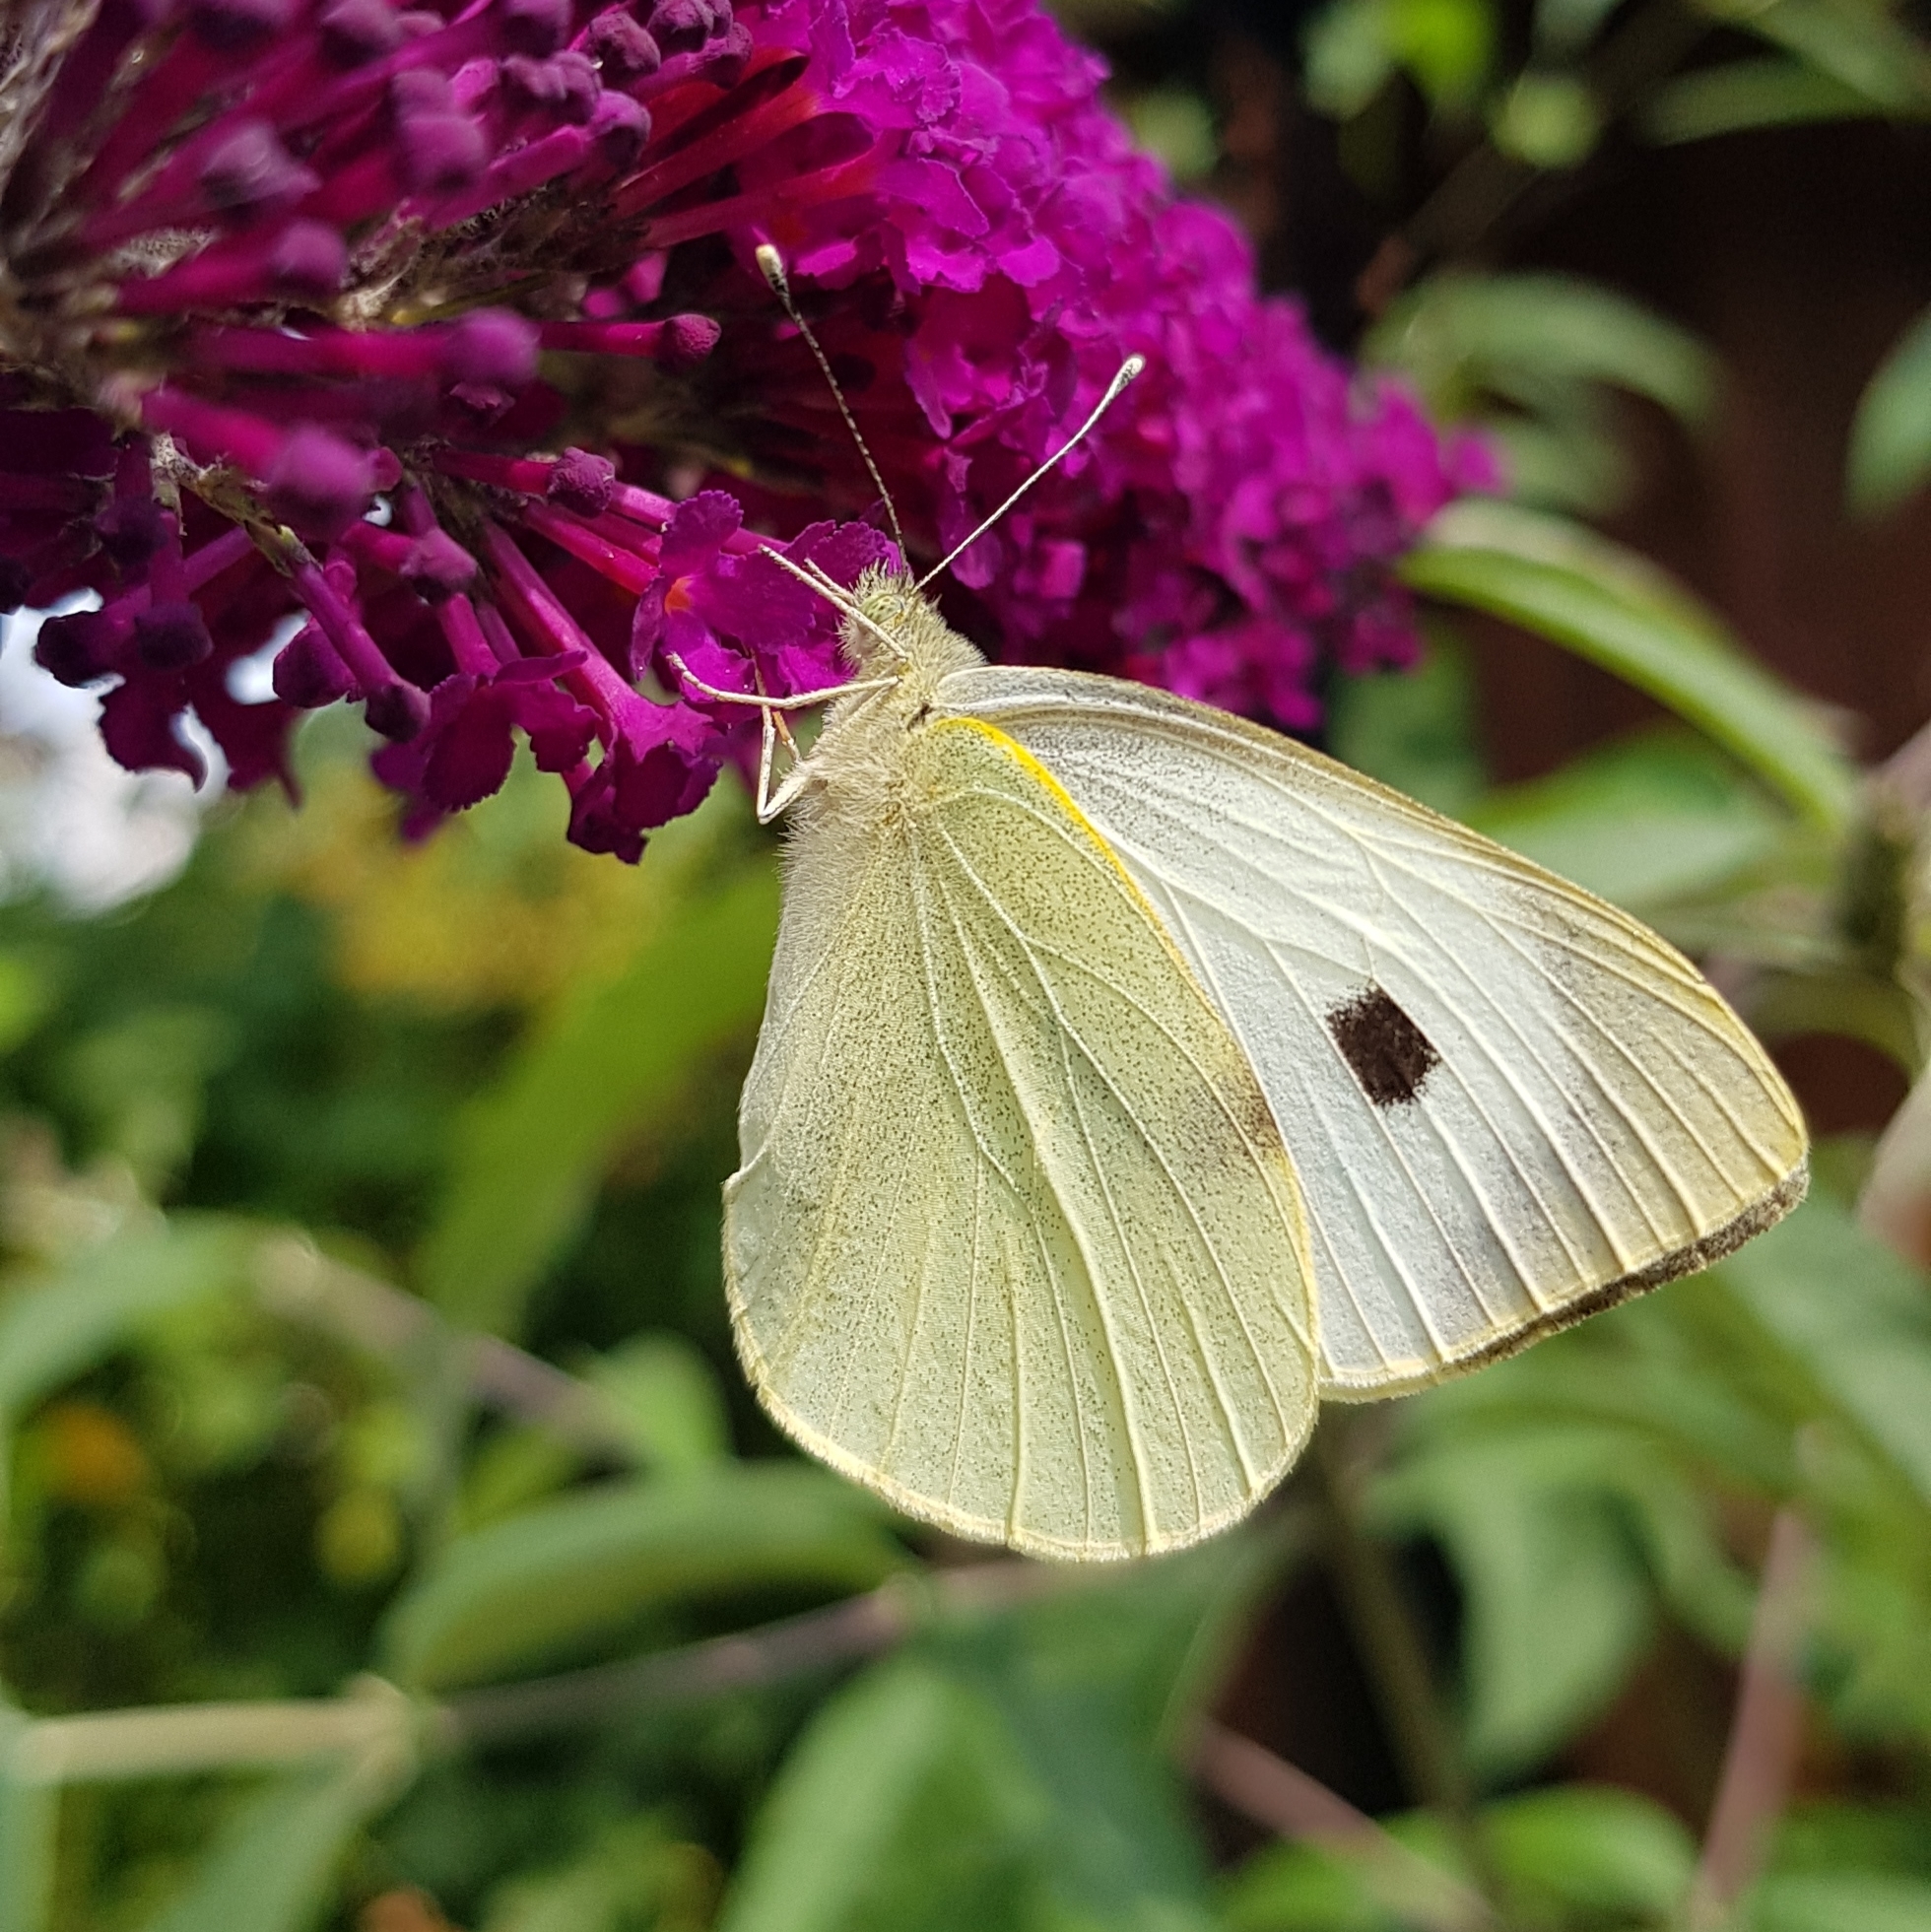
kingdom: Animalia
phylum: Arthropoda
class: Insecta
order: Lepidoptera
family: Pieridae
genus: Pieris
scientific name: Pieris brassicae
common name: Large white
